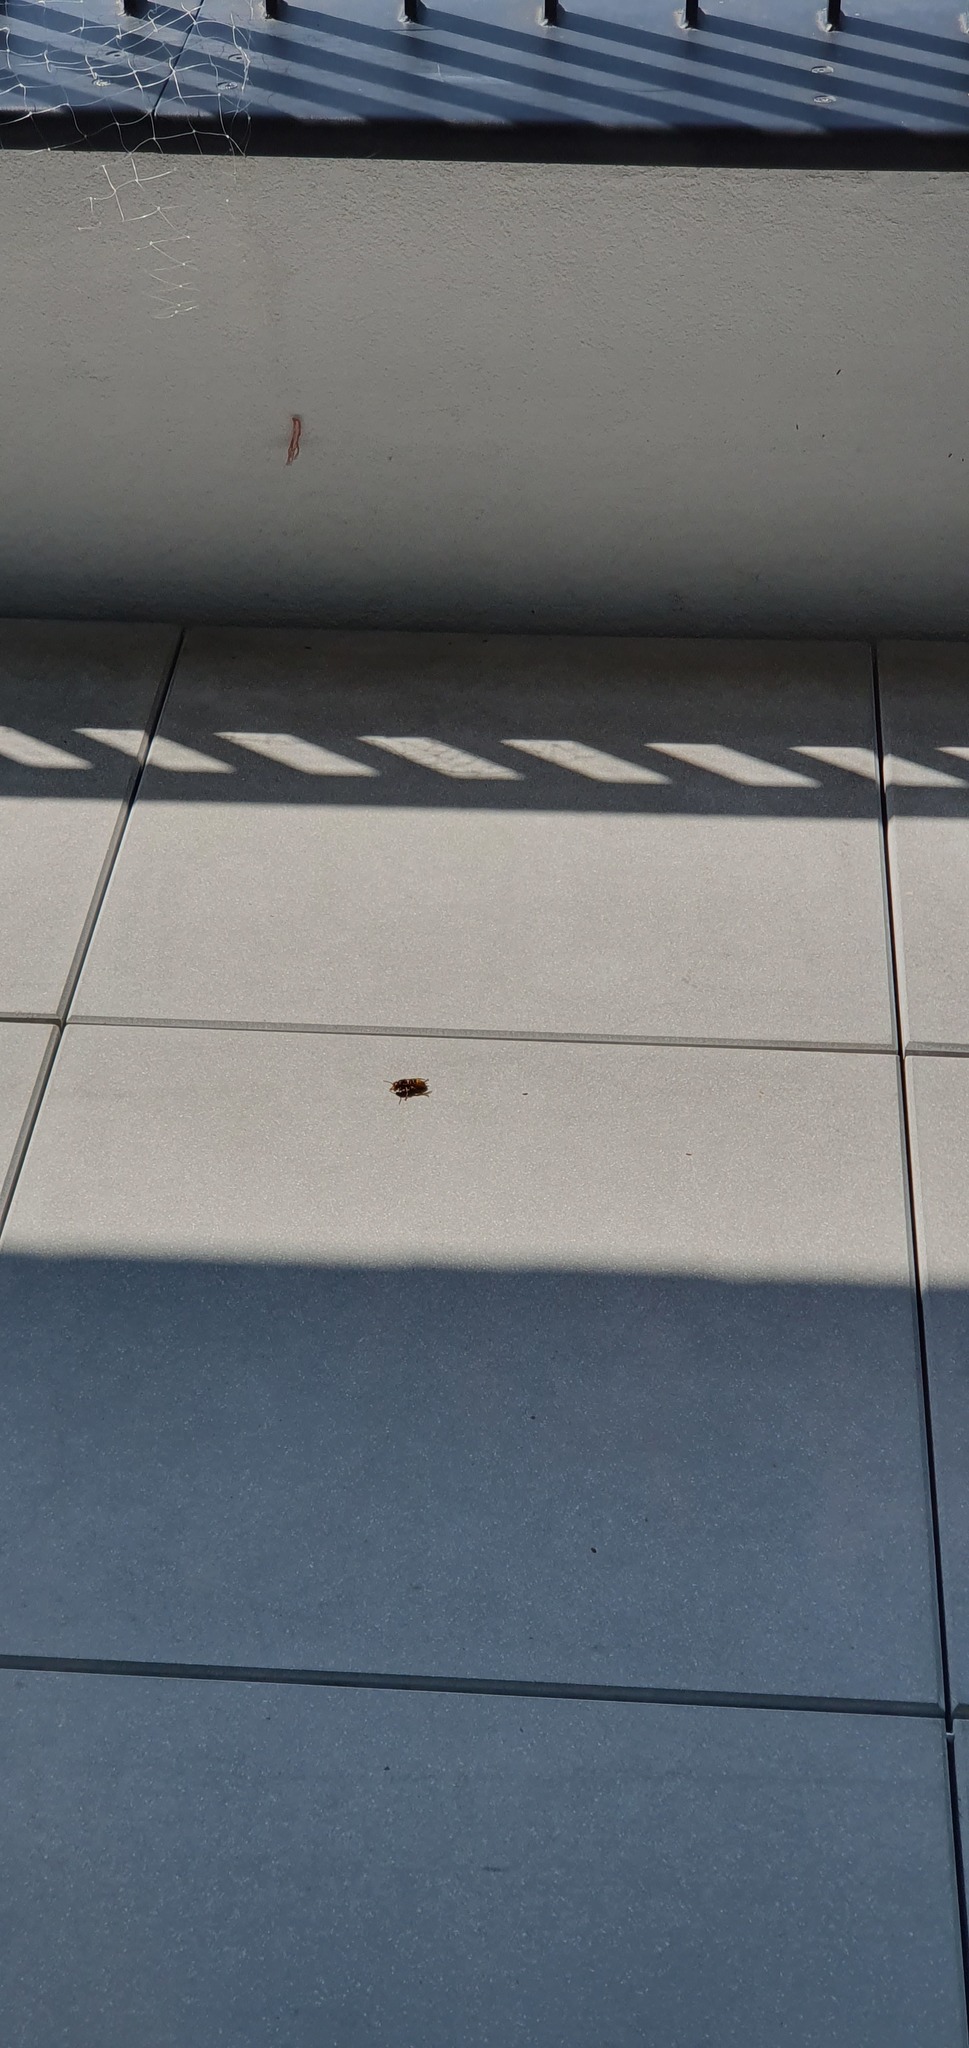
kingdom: Animalia
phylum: Arthropoda
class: Insecta
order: Hymenoptera
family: Vespidae
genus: Vespa
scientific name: Vespa crabro
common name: Hornet
